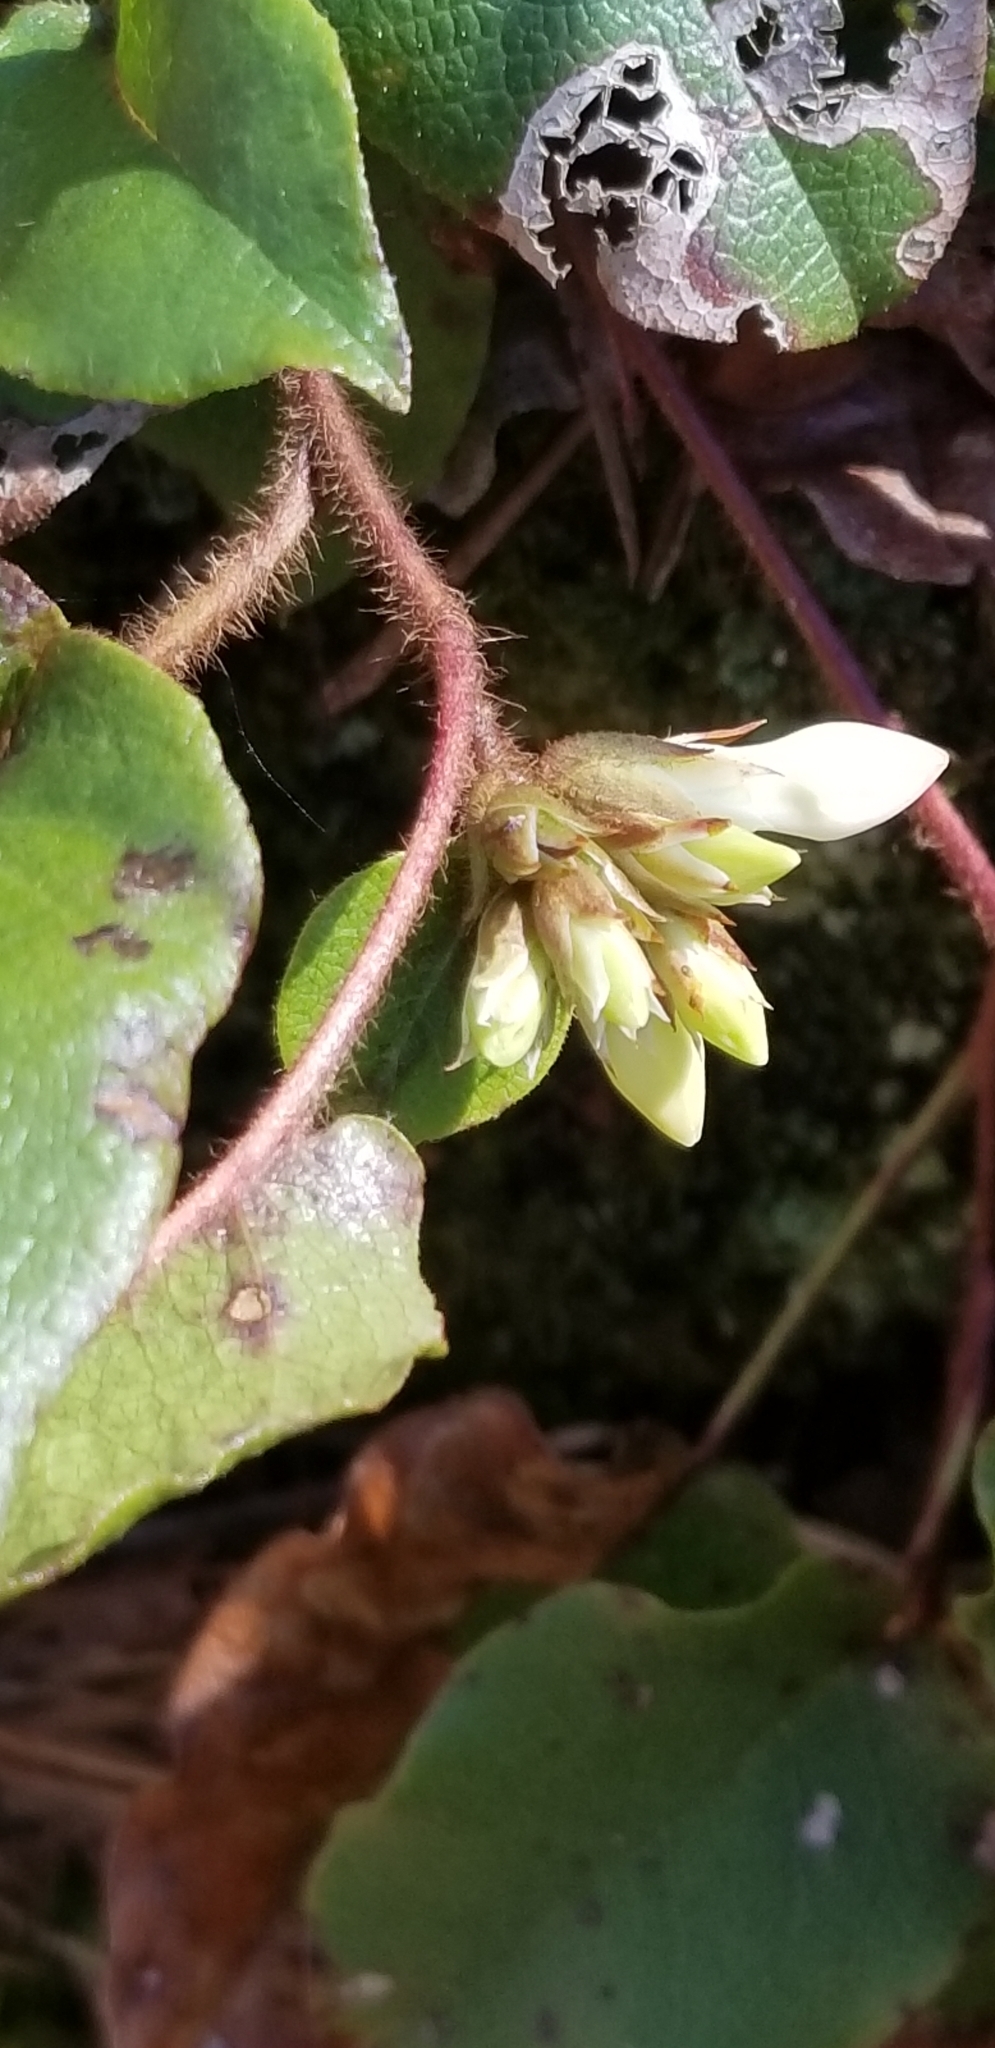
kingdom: Plantae
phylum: Tracheophyta
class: Magnoliopsida
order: Ericales
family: Ericaceae
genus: Epigaea
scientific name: Epigaea repens
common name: Gravelroot
